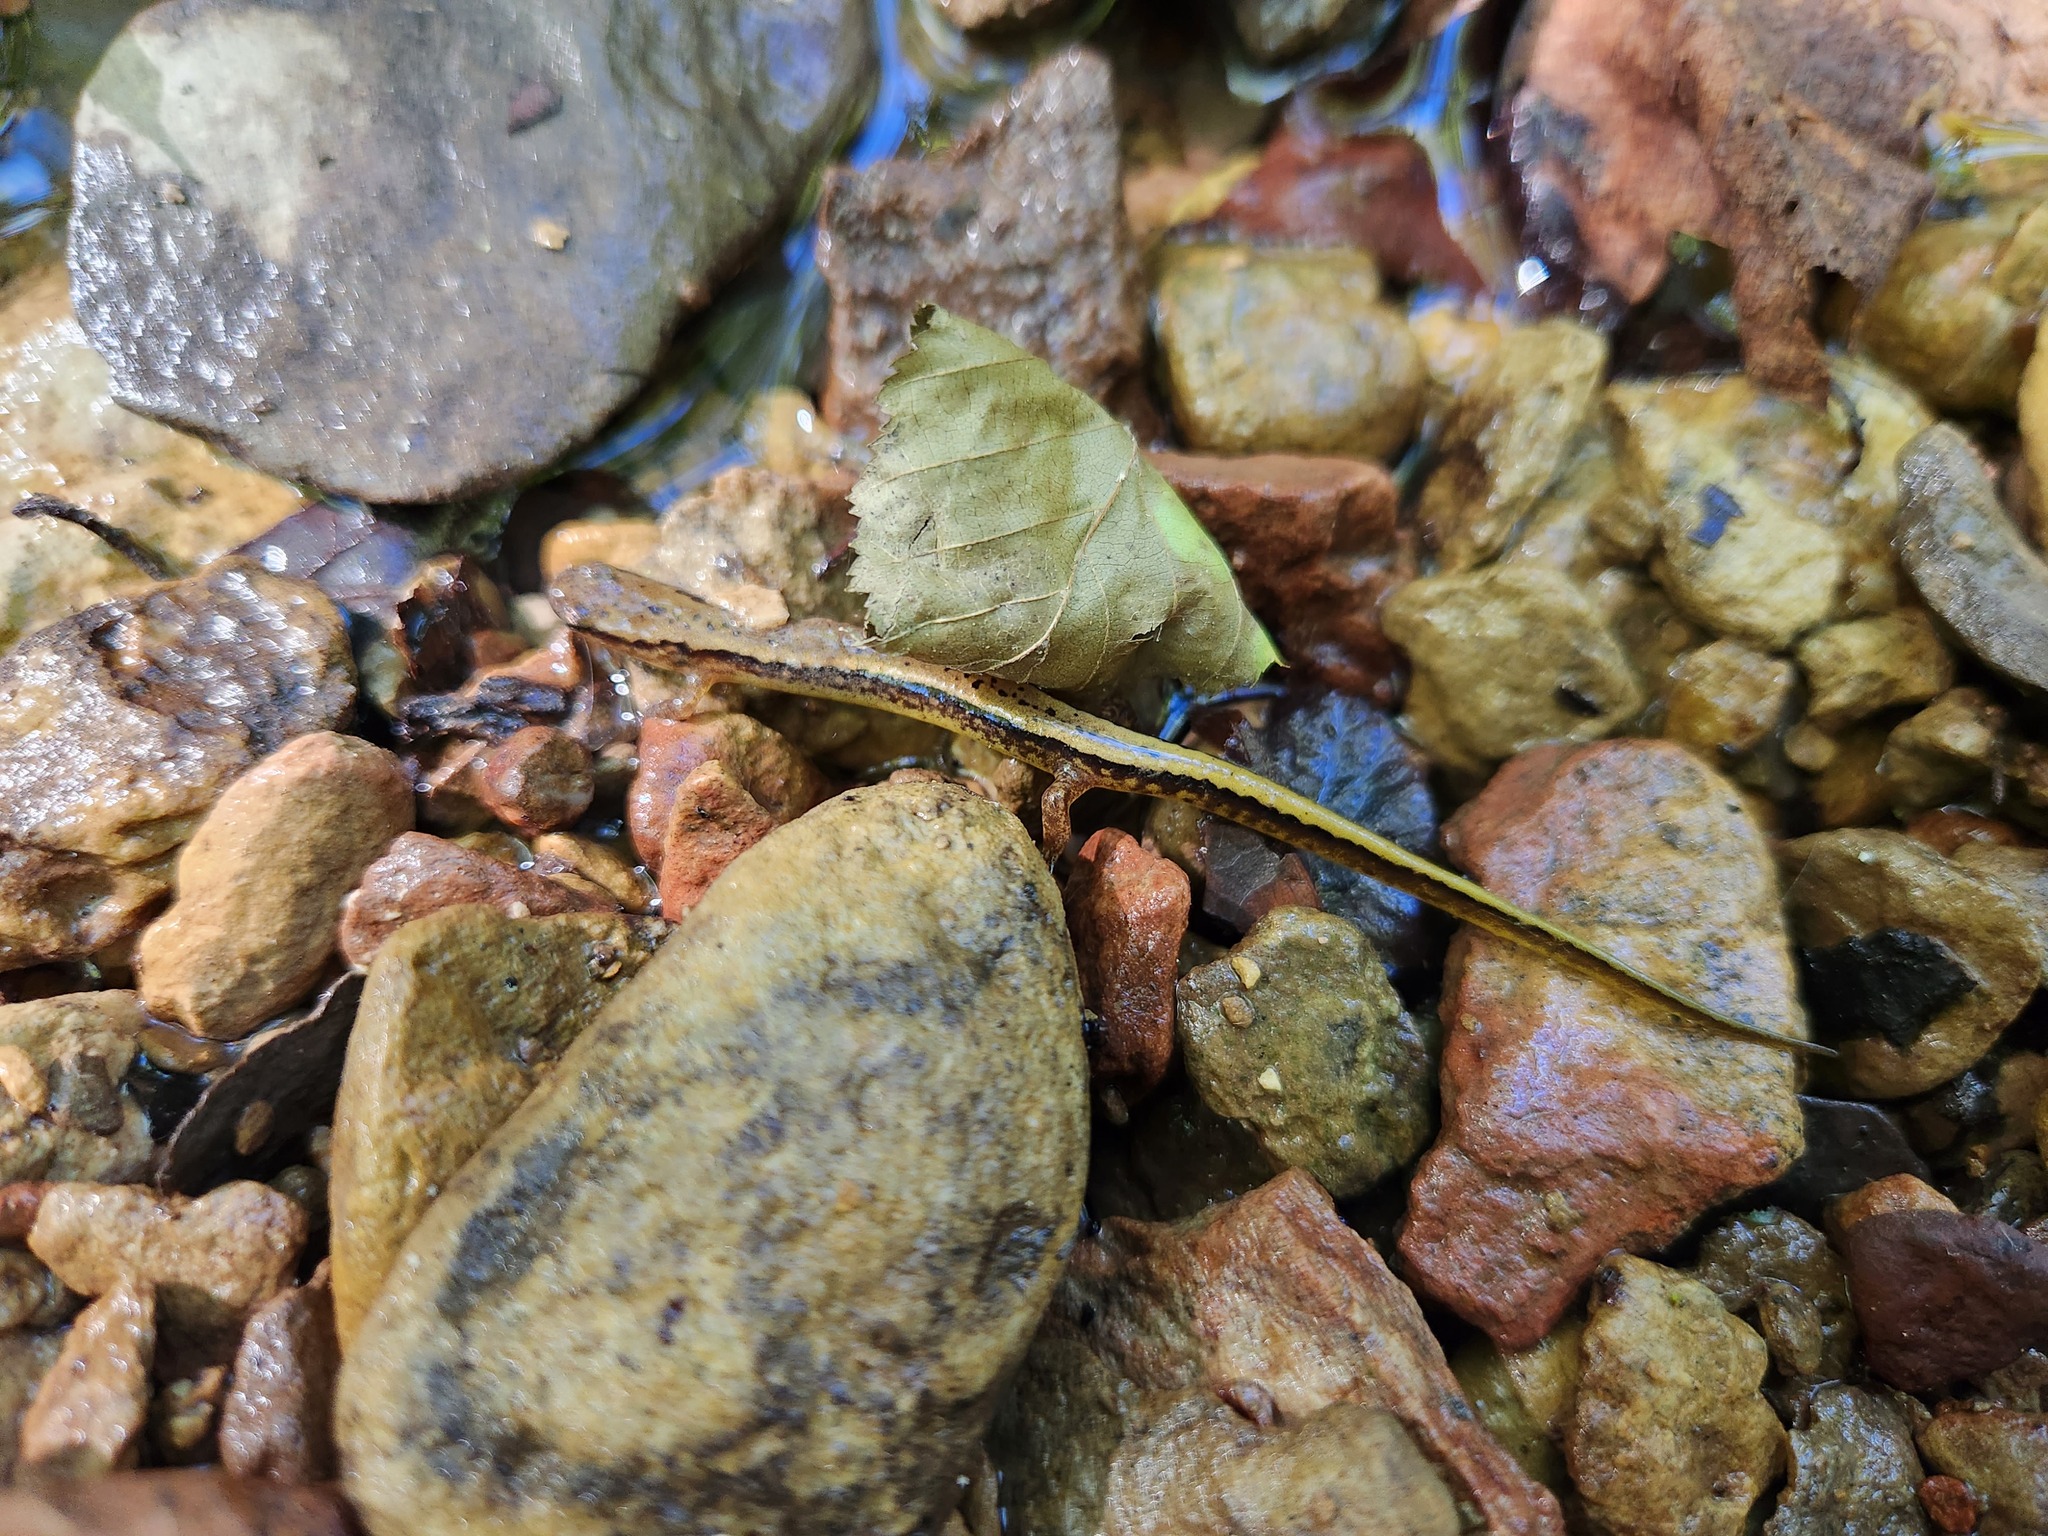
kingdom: Animalia
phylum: Chordata
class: Amphibia
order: Caudata
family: Plethodontidae
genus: Eurycea
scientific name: Eurycea cirrigera
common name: Southern two-lined salamander
